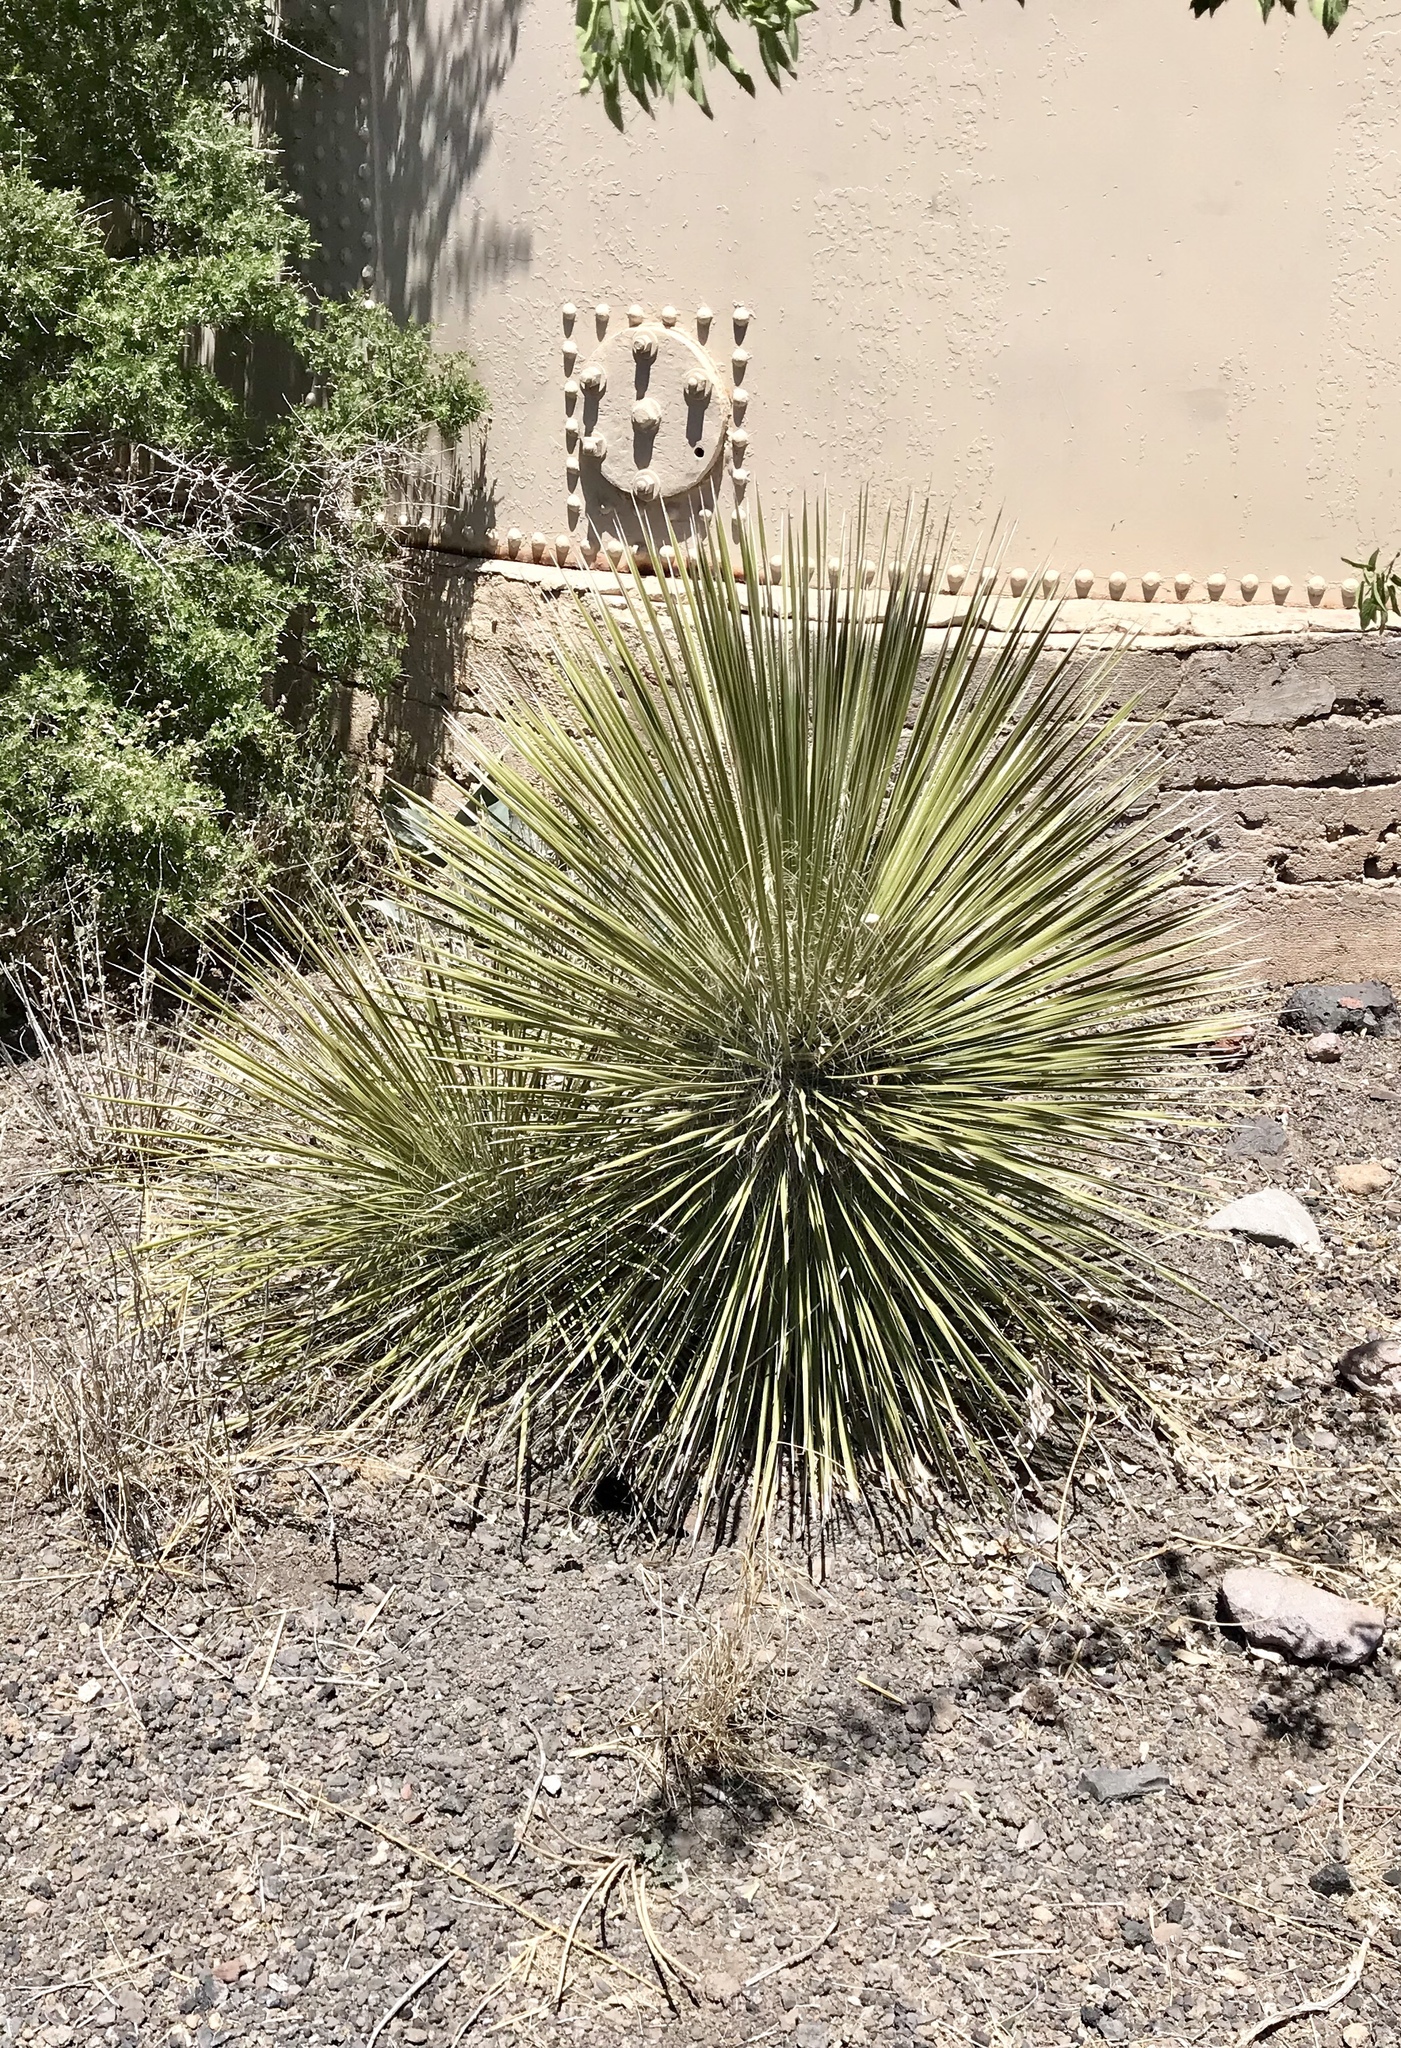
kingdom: Plantae
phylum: Tracheophyta
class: Liliopsida
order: Asparagales
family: Asparagaceae
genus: Yucca
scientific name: Yucca elata
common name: Palmella
